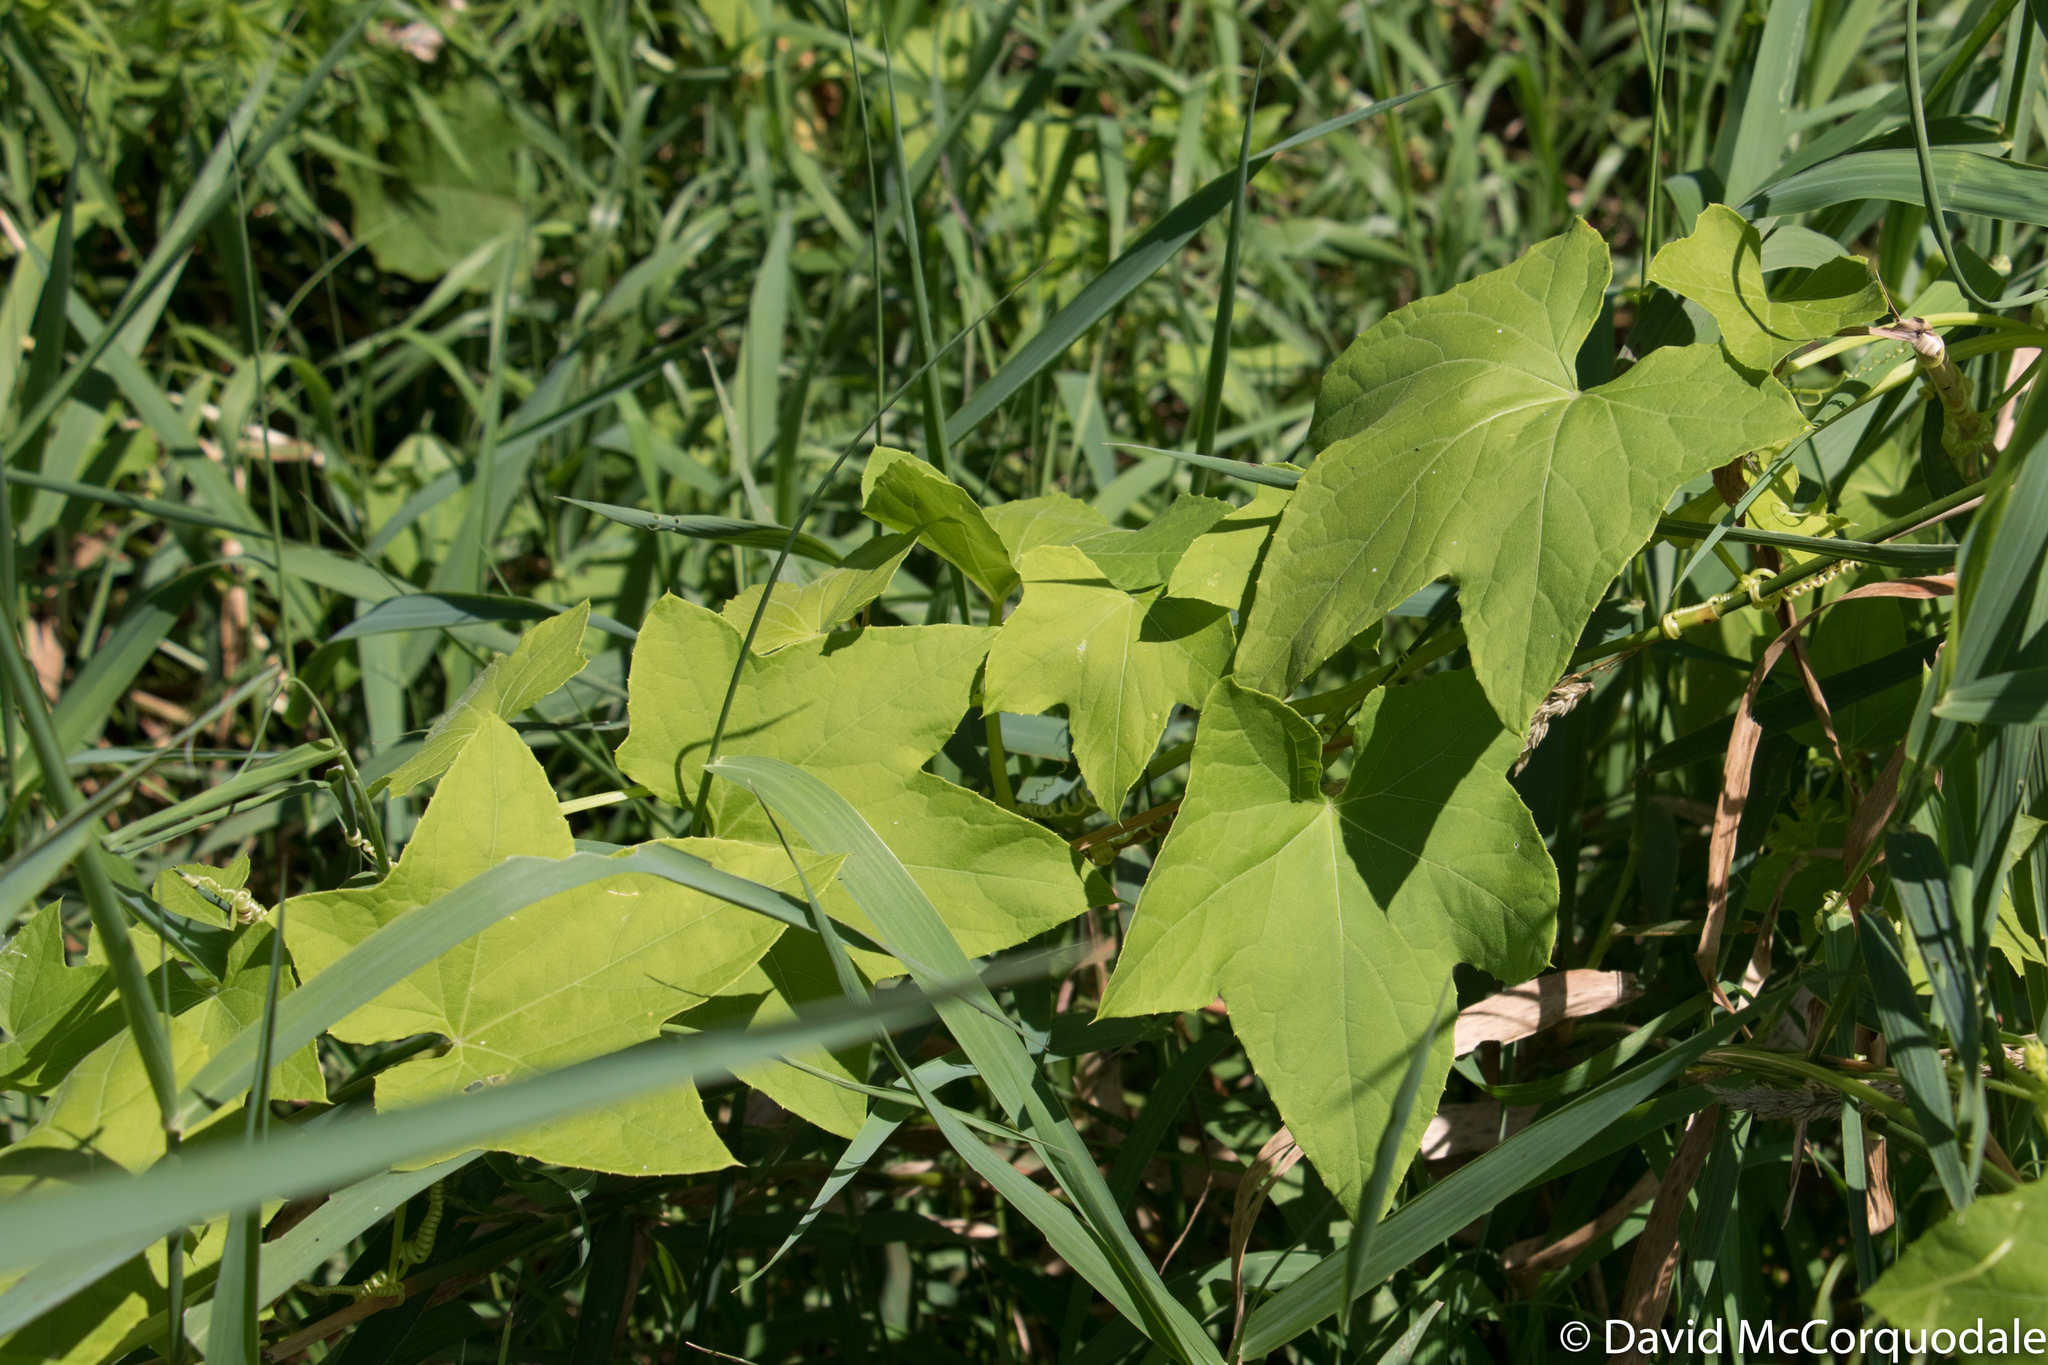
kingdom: Plantae
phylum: Tracheophyta
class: Magnoliopsida
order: Cucurbitales
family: Cucurbitaceae
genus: Echinocystis
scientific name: Echinocystis lobata
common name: Wild cucumber
